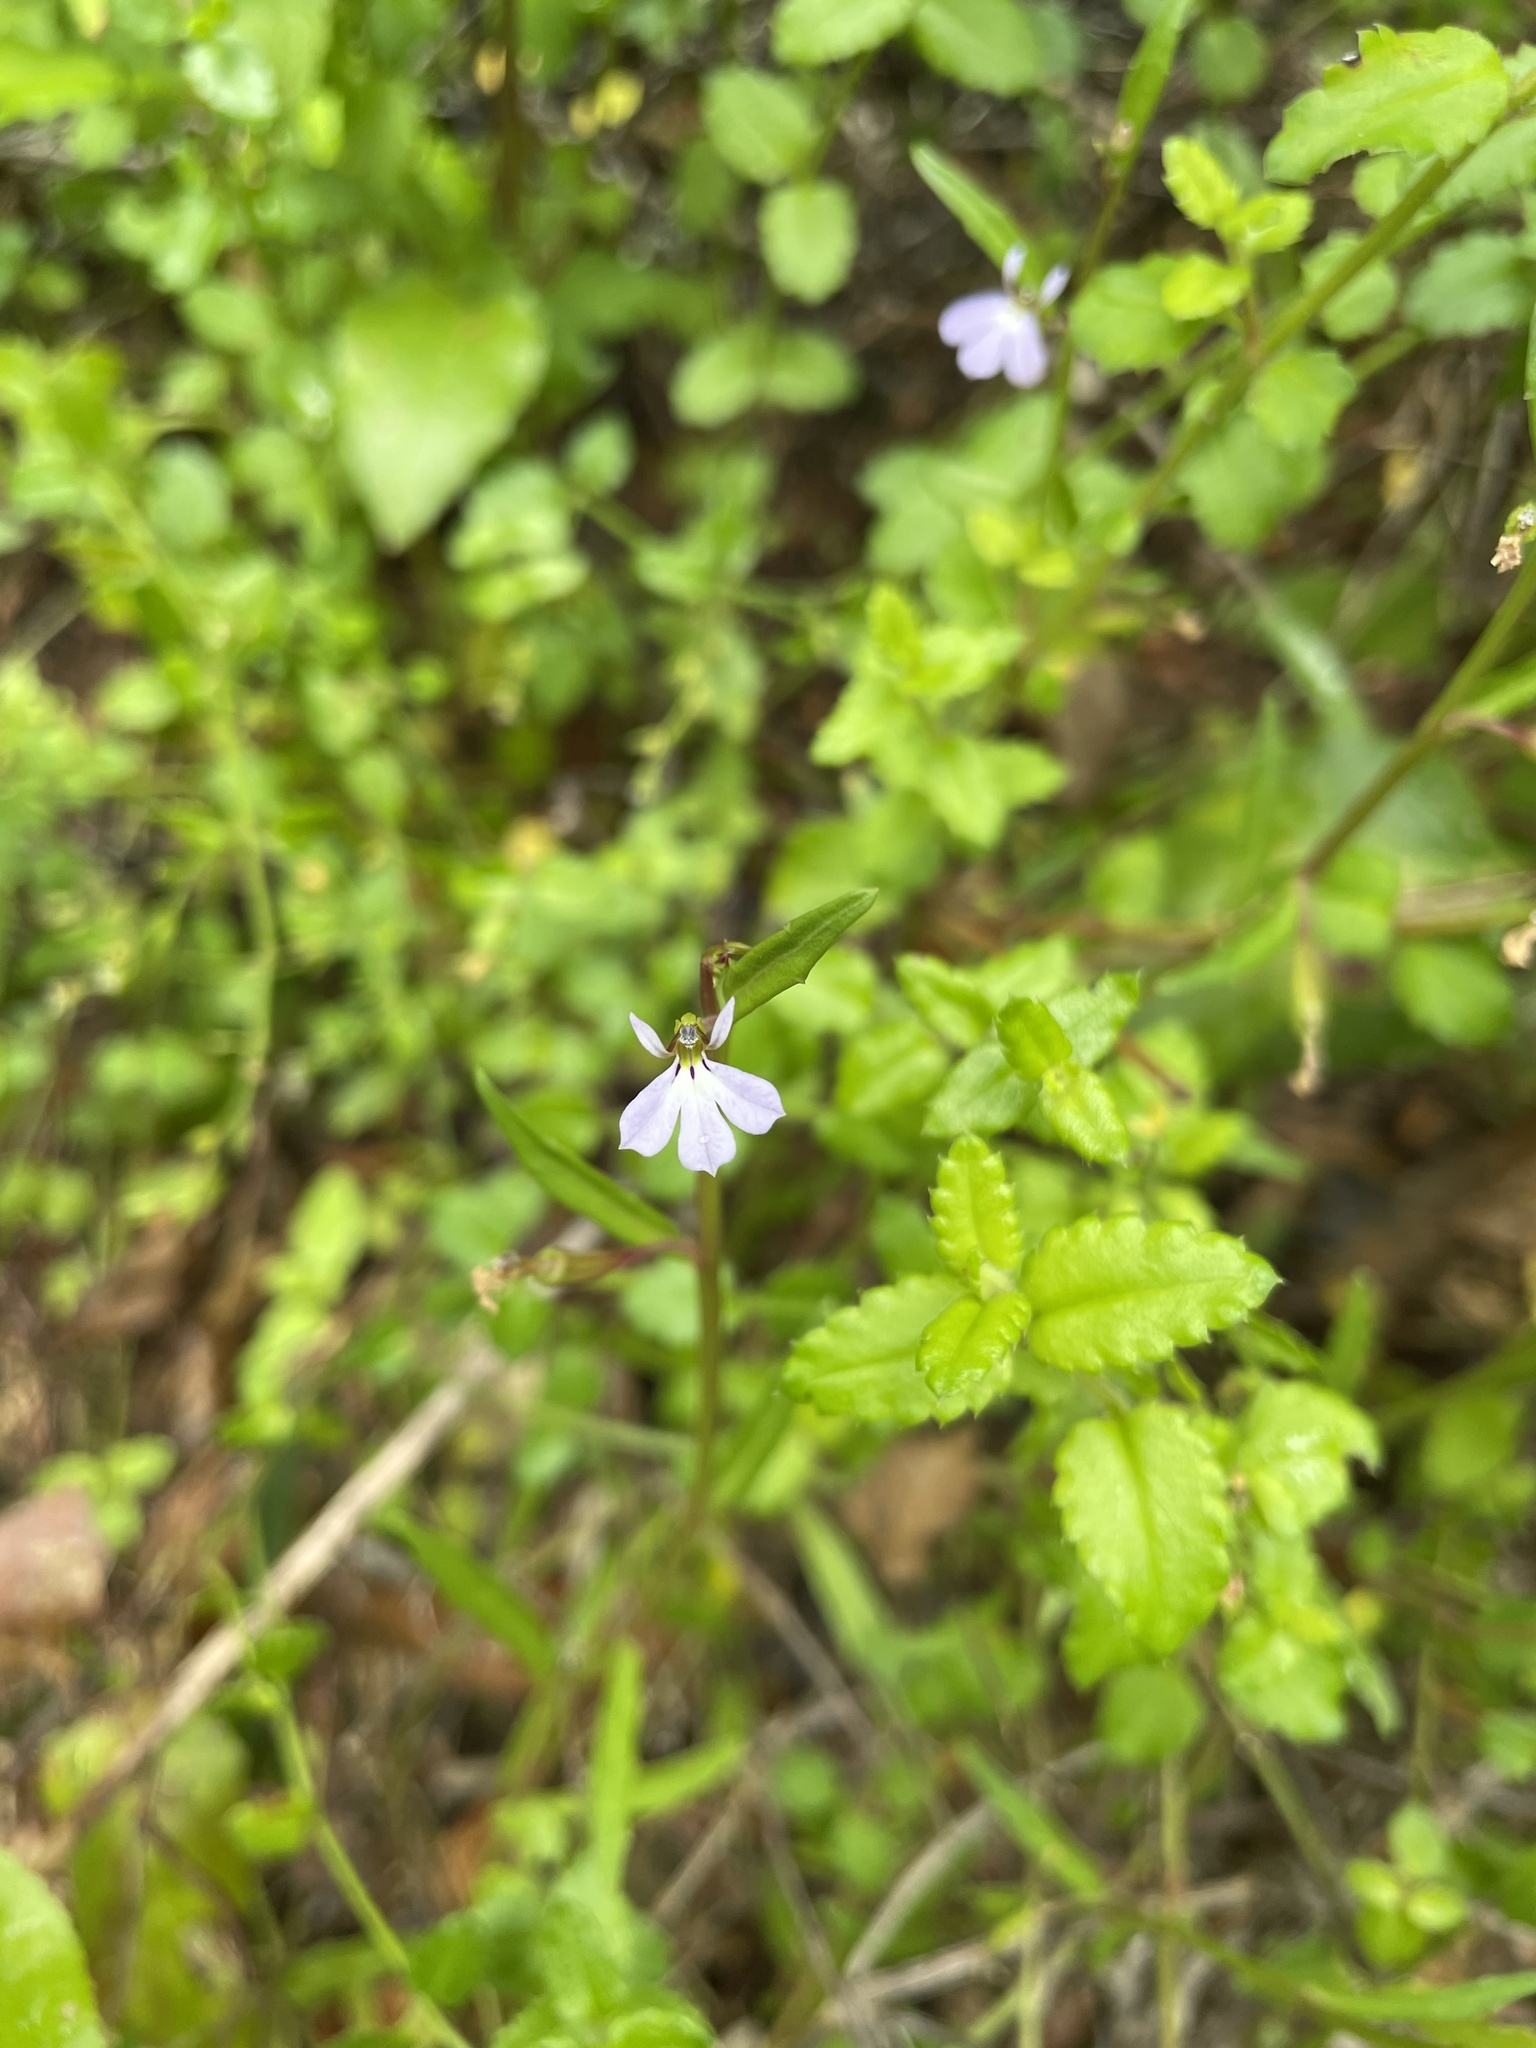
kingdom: Plantae
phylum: Tracheophyta
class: Magnoliopsida
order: Asterales
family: Campanulaceae
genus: Lobelia
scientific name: Lobelia anceps
